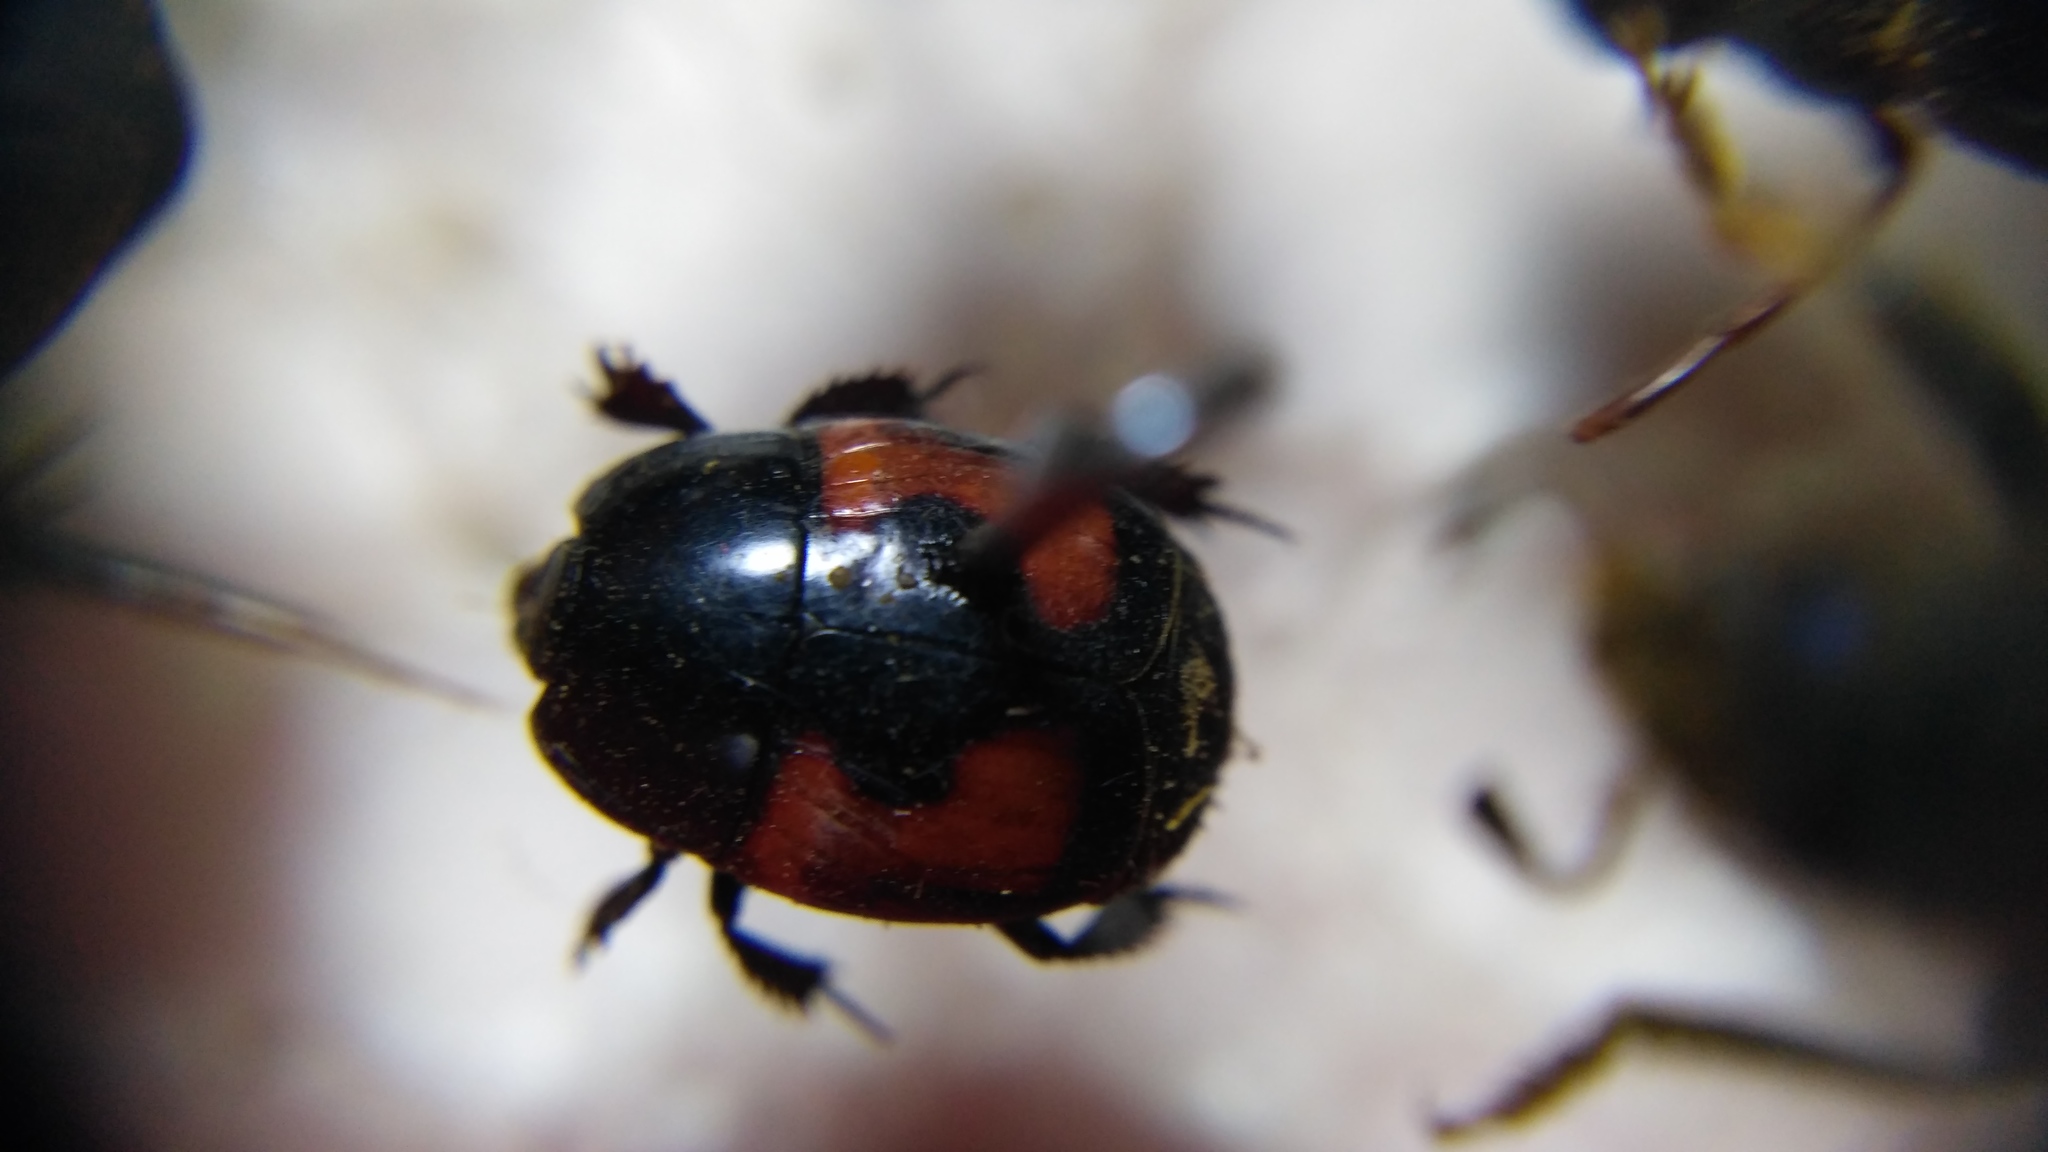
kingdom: Animalia
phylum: Arthropoda
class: Insecta
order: Coleoptera
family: Histeridae
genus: Hister
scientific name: Hister quadrimaculatus
